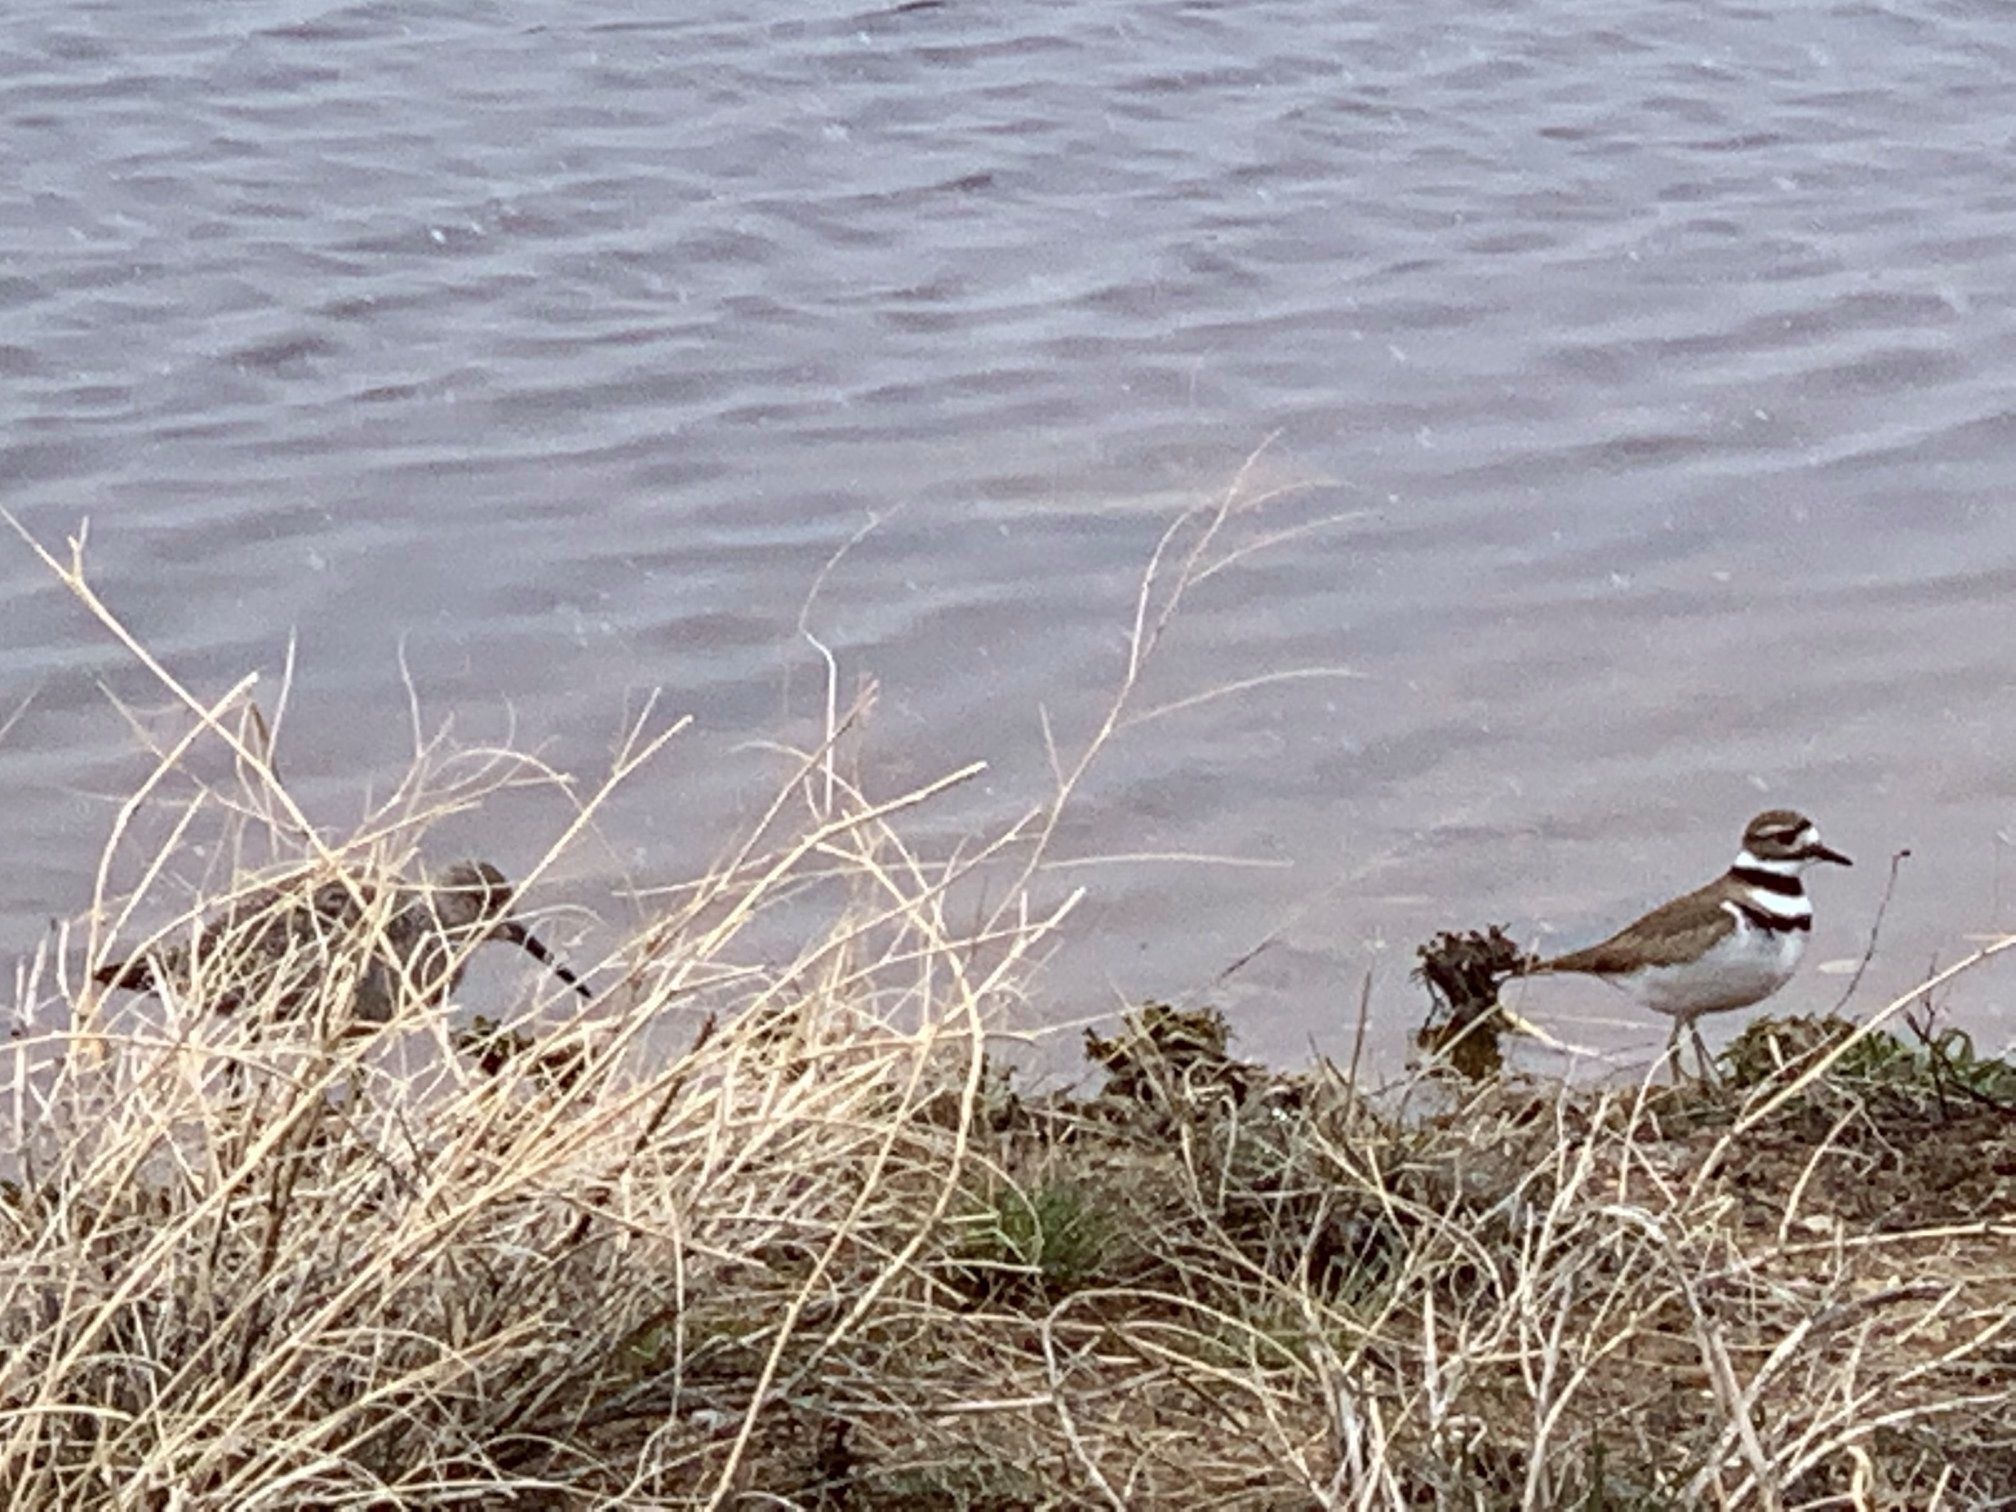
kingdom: Animalia
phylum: Chordata
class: Aves
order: Charadriiformes
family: Charadriidae
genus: Charadrius
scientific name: Charadrius vociferus
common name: Killdeer
